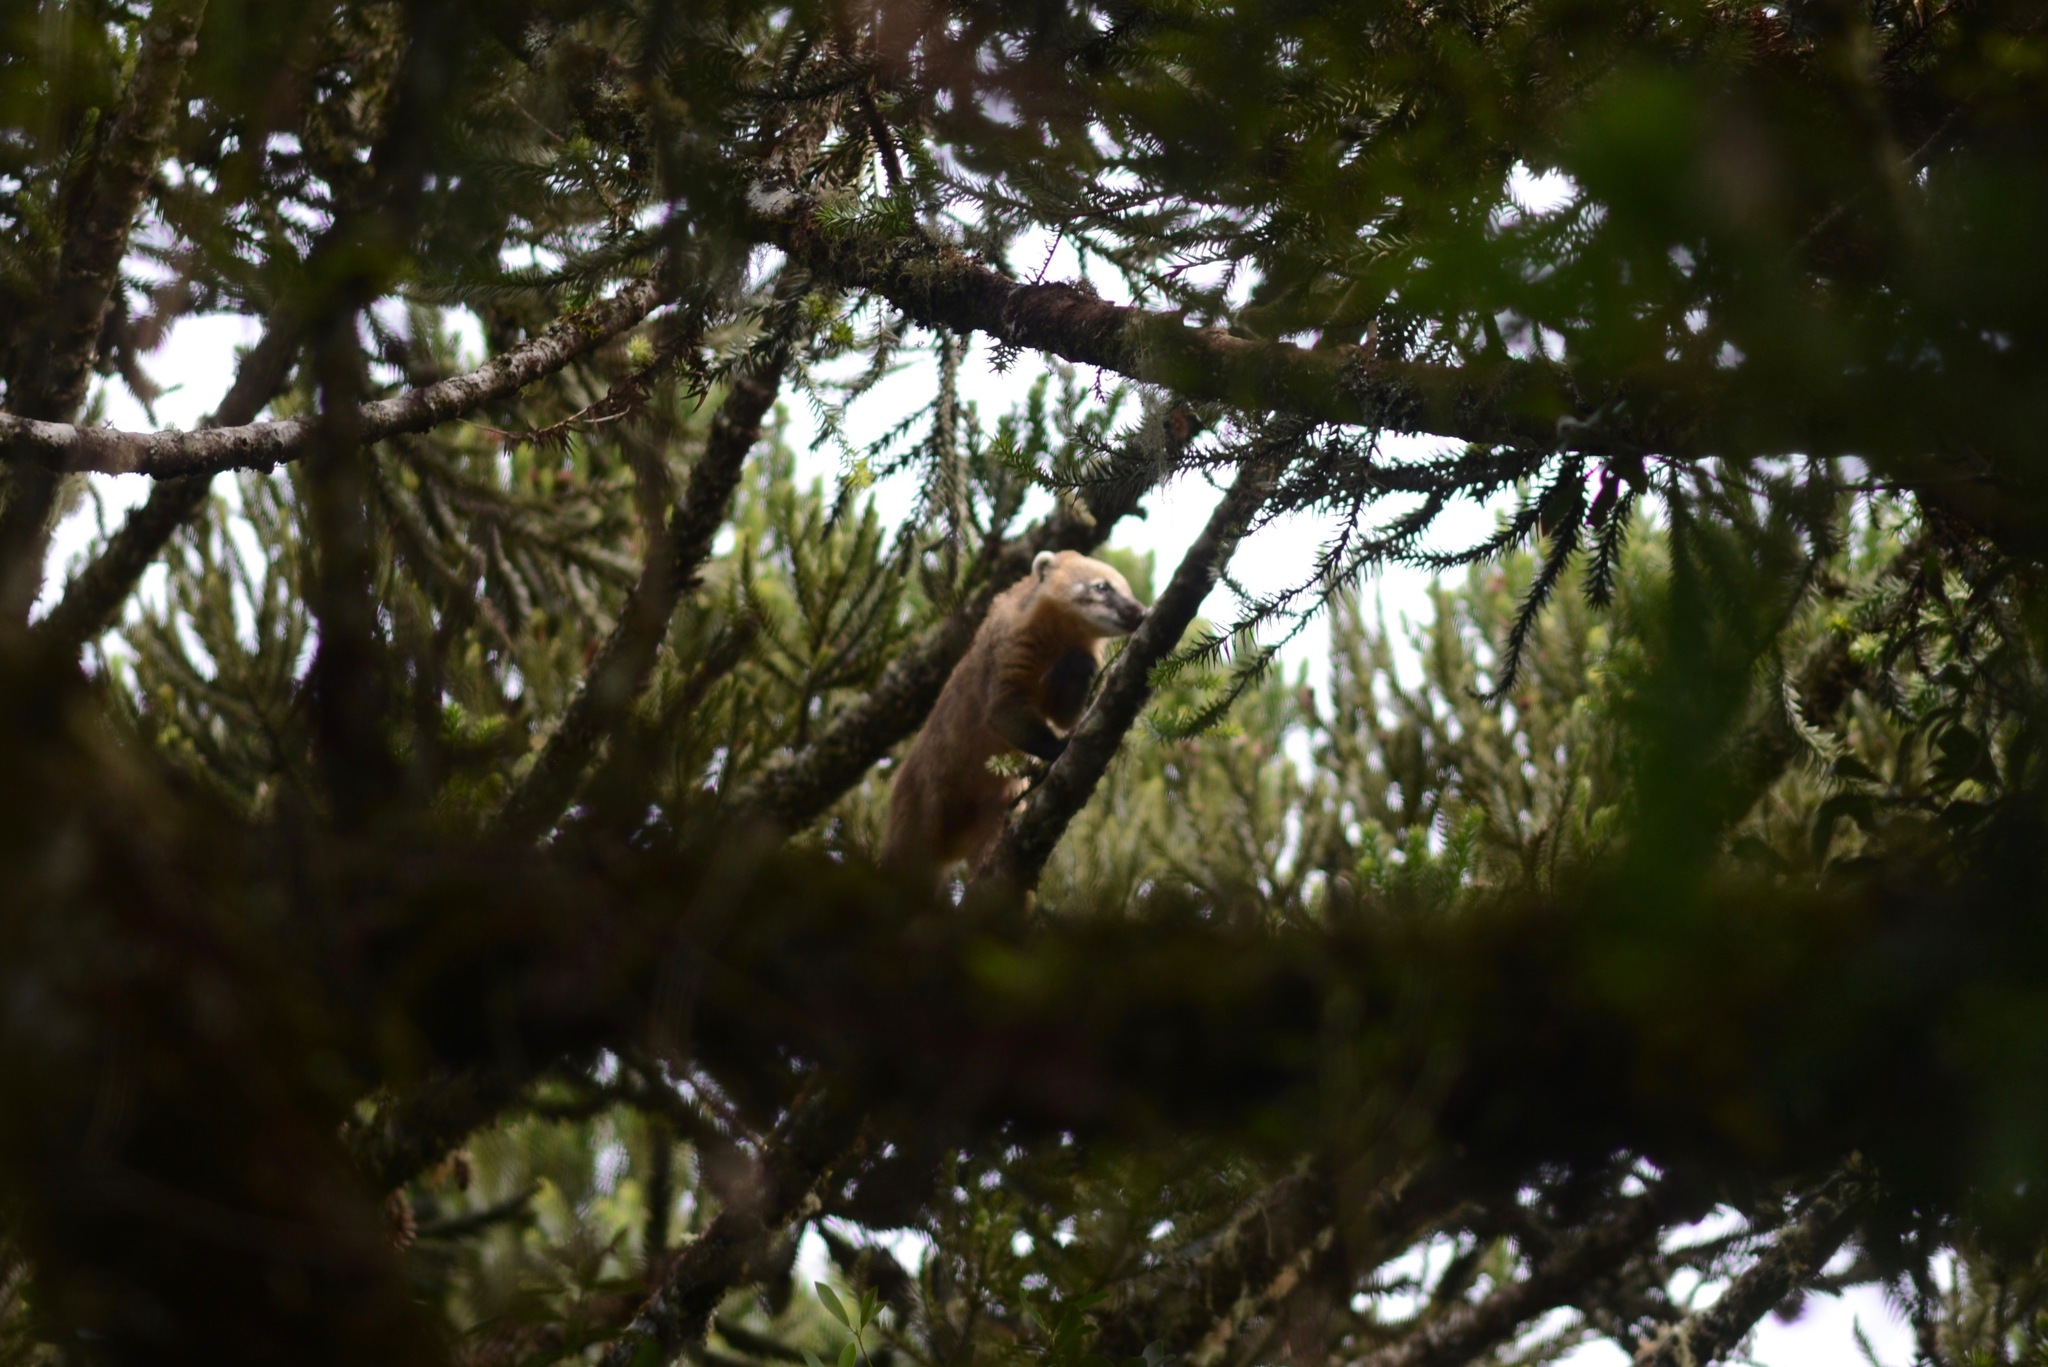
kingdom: Animalia
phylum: Chordata
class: Mammalia
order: Carnivora
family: Procyonidae
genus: Nasua
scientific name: Nasua nasua
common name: South american coati
